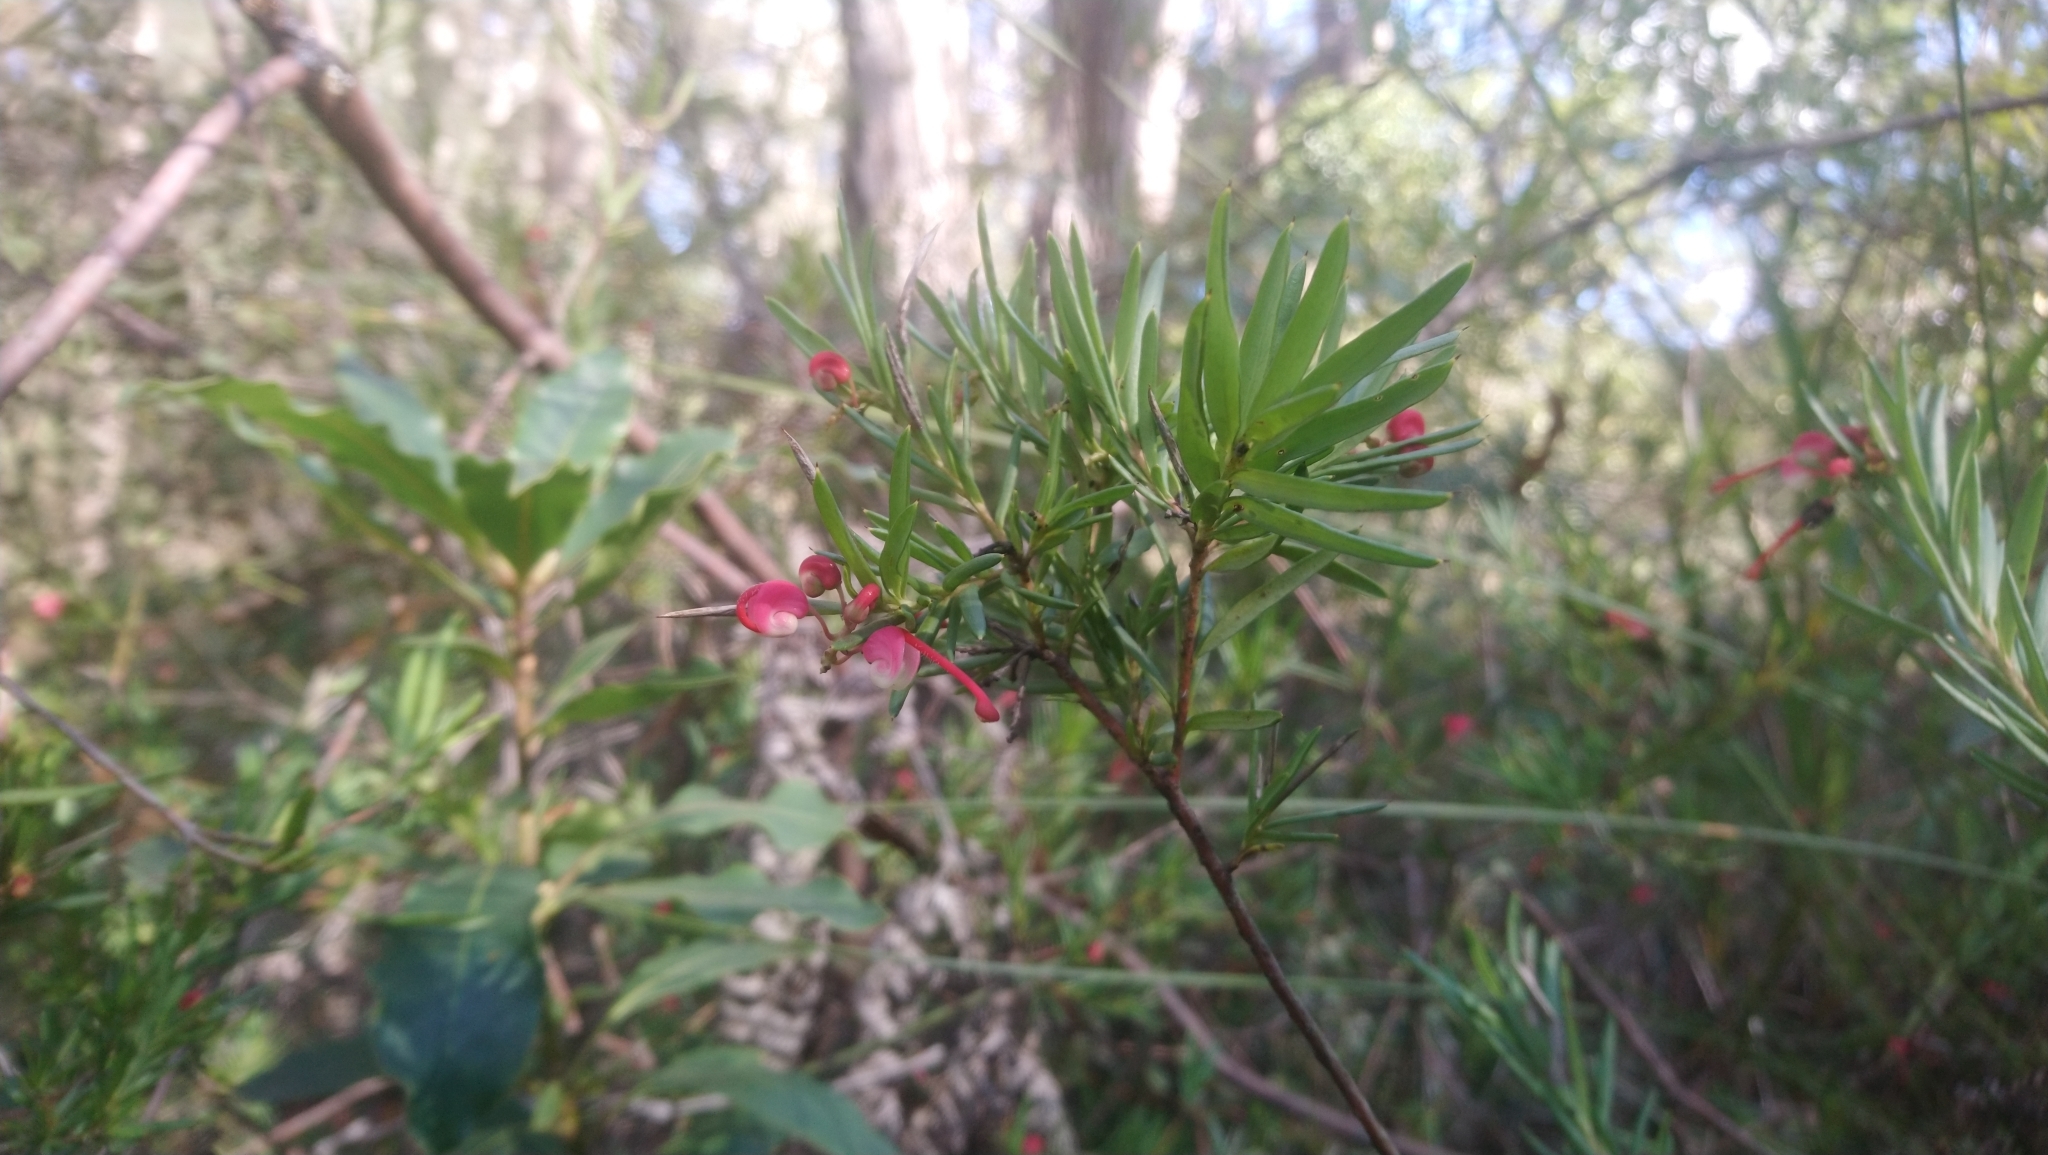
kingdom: Plantae
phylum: Tracheophyta
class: Magnoliopsida
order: Proteales
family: Proteaceae
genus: Grevillea
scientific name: Grevillea baueri
